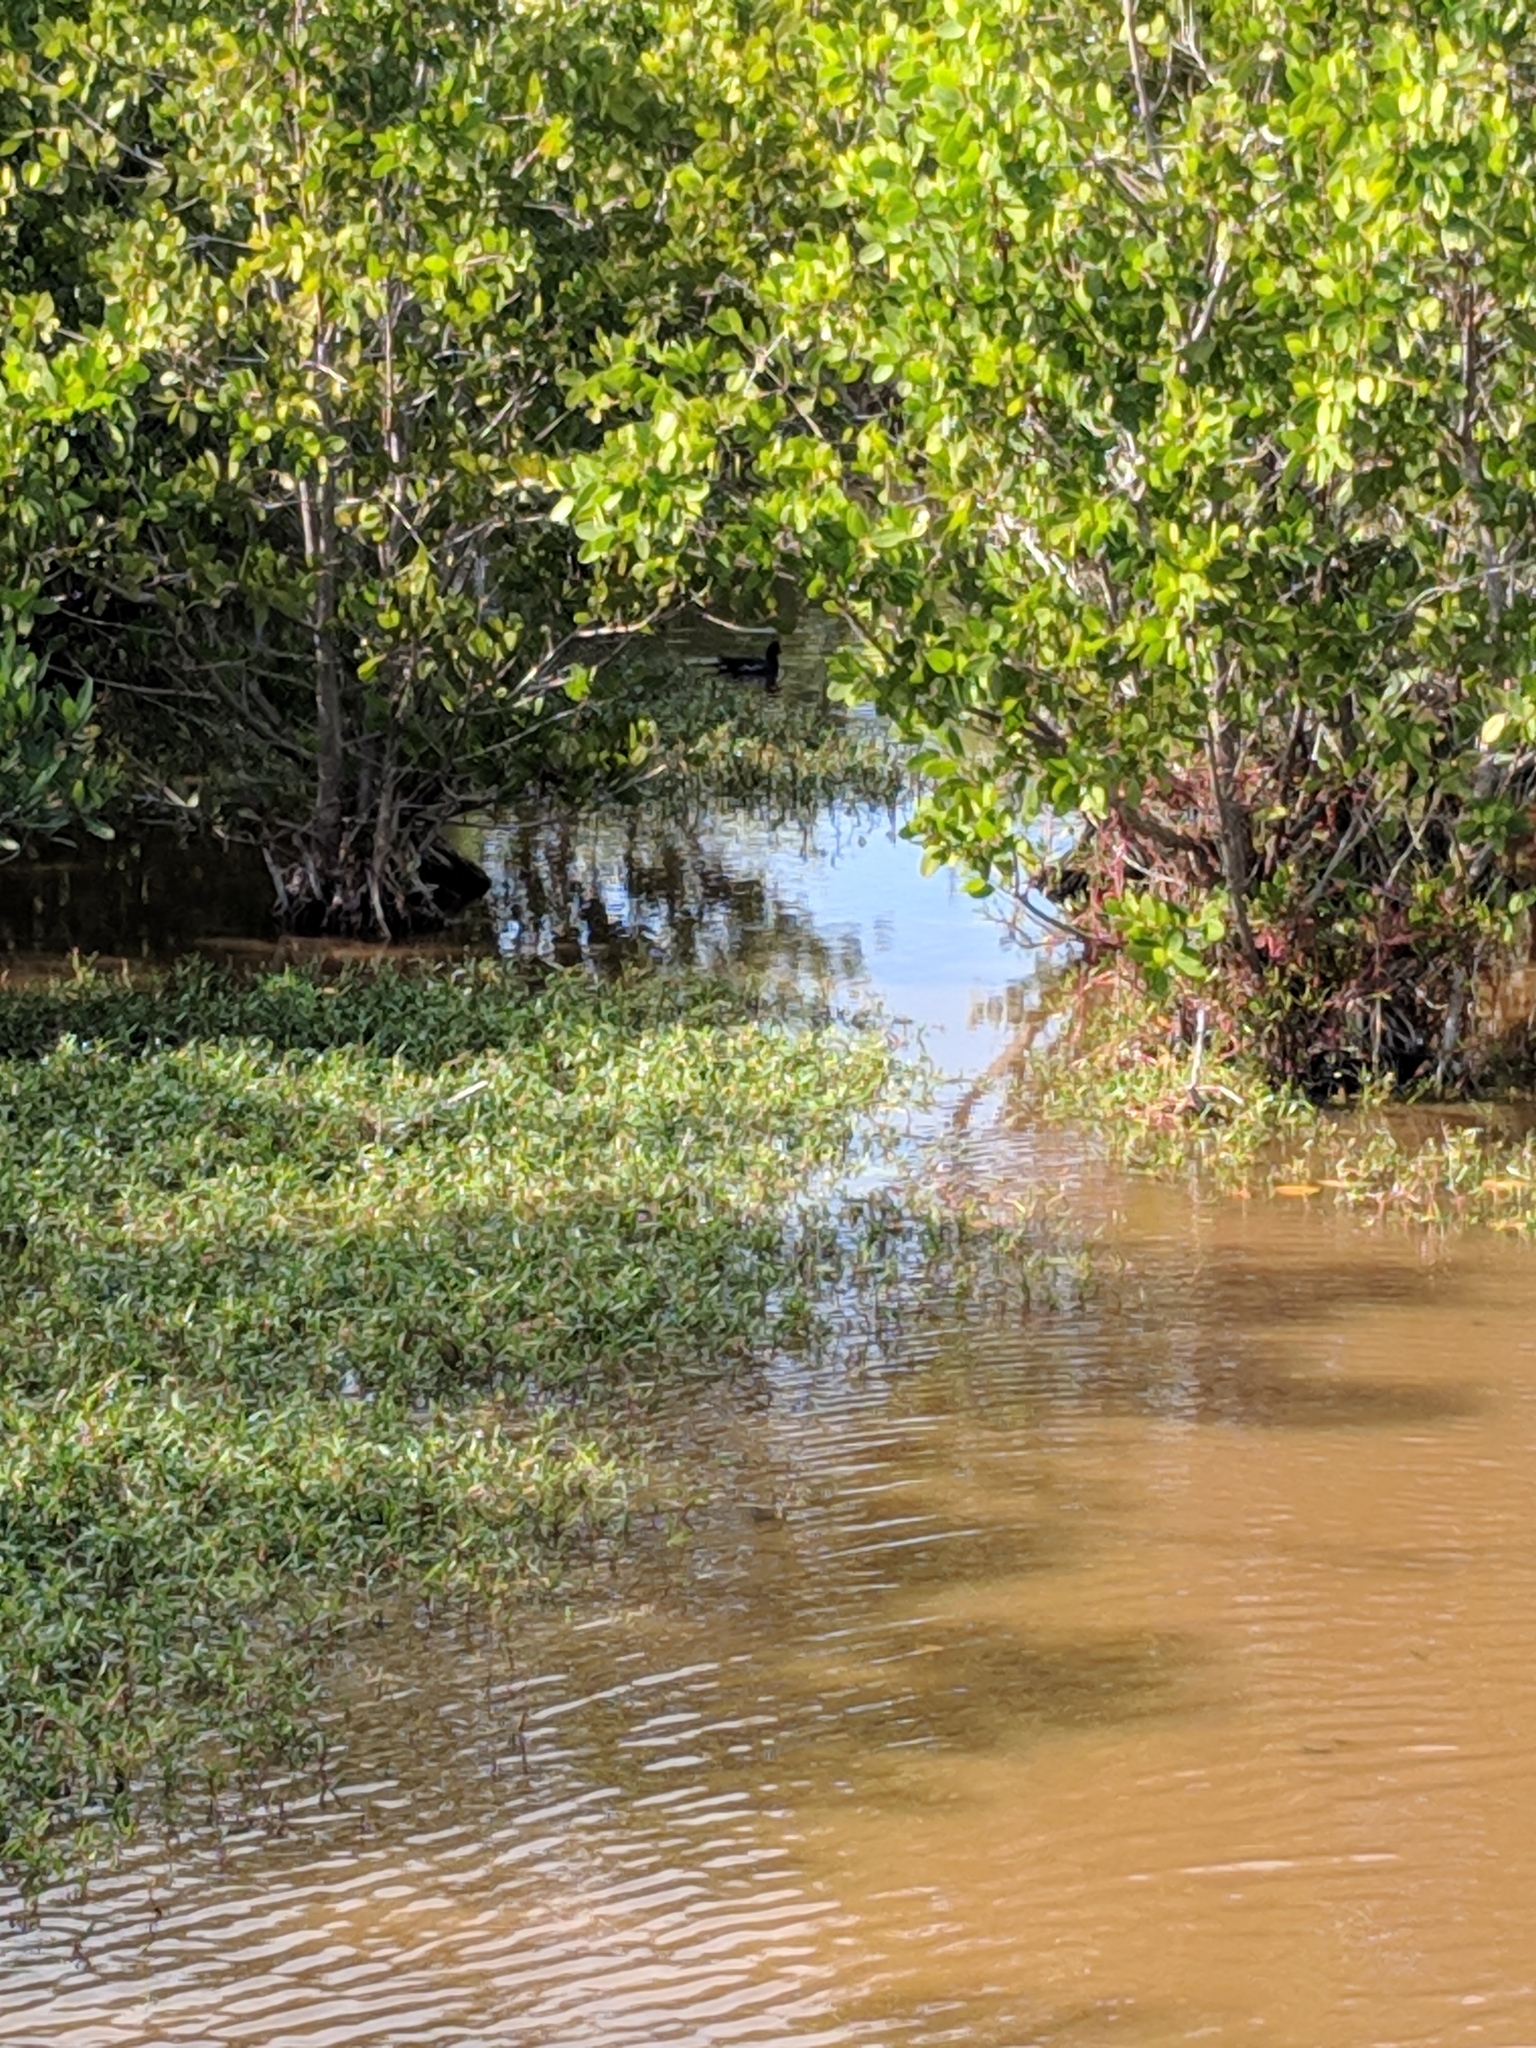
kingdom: Animalia
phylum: Chordata
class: Aves
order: Gruiformes
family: Rallidae
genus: Gallinula
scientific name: Gallinula chloropus
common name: Common moorhen
